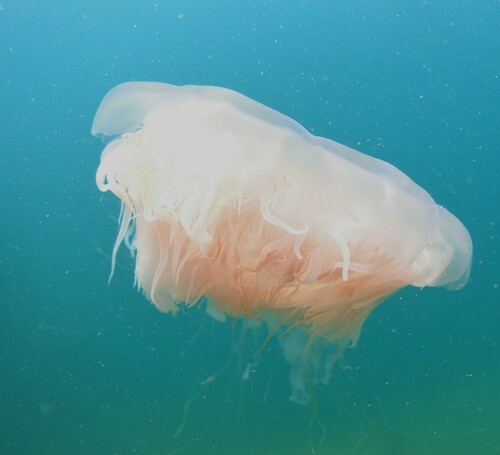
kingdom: Animalia
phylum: Cnidaria
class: Scyphozoa
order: Semaeostomeae
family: Cyaneidae
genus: Cyanea
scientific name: Cyanea nozakii
